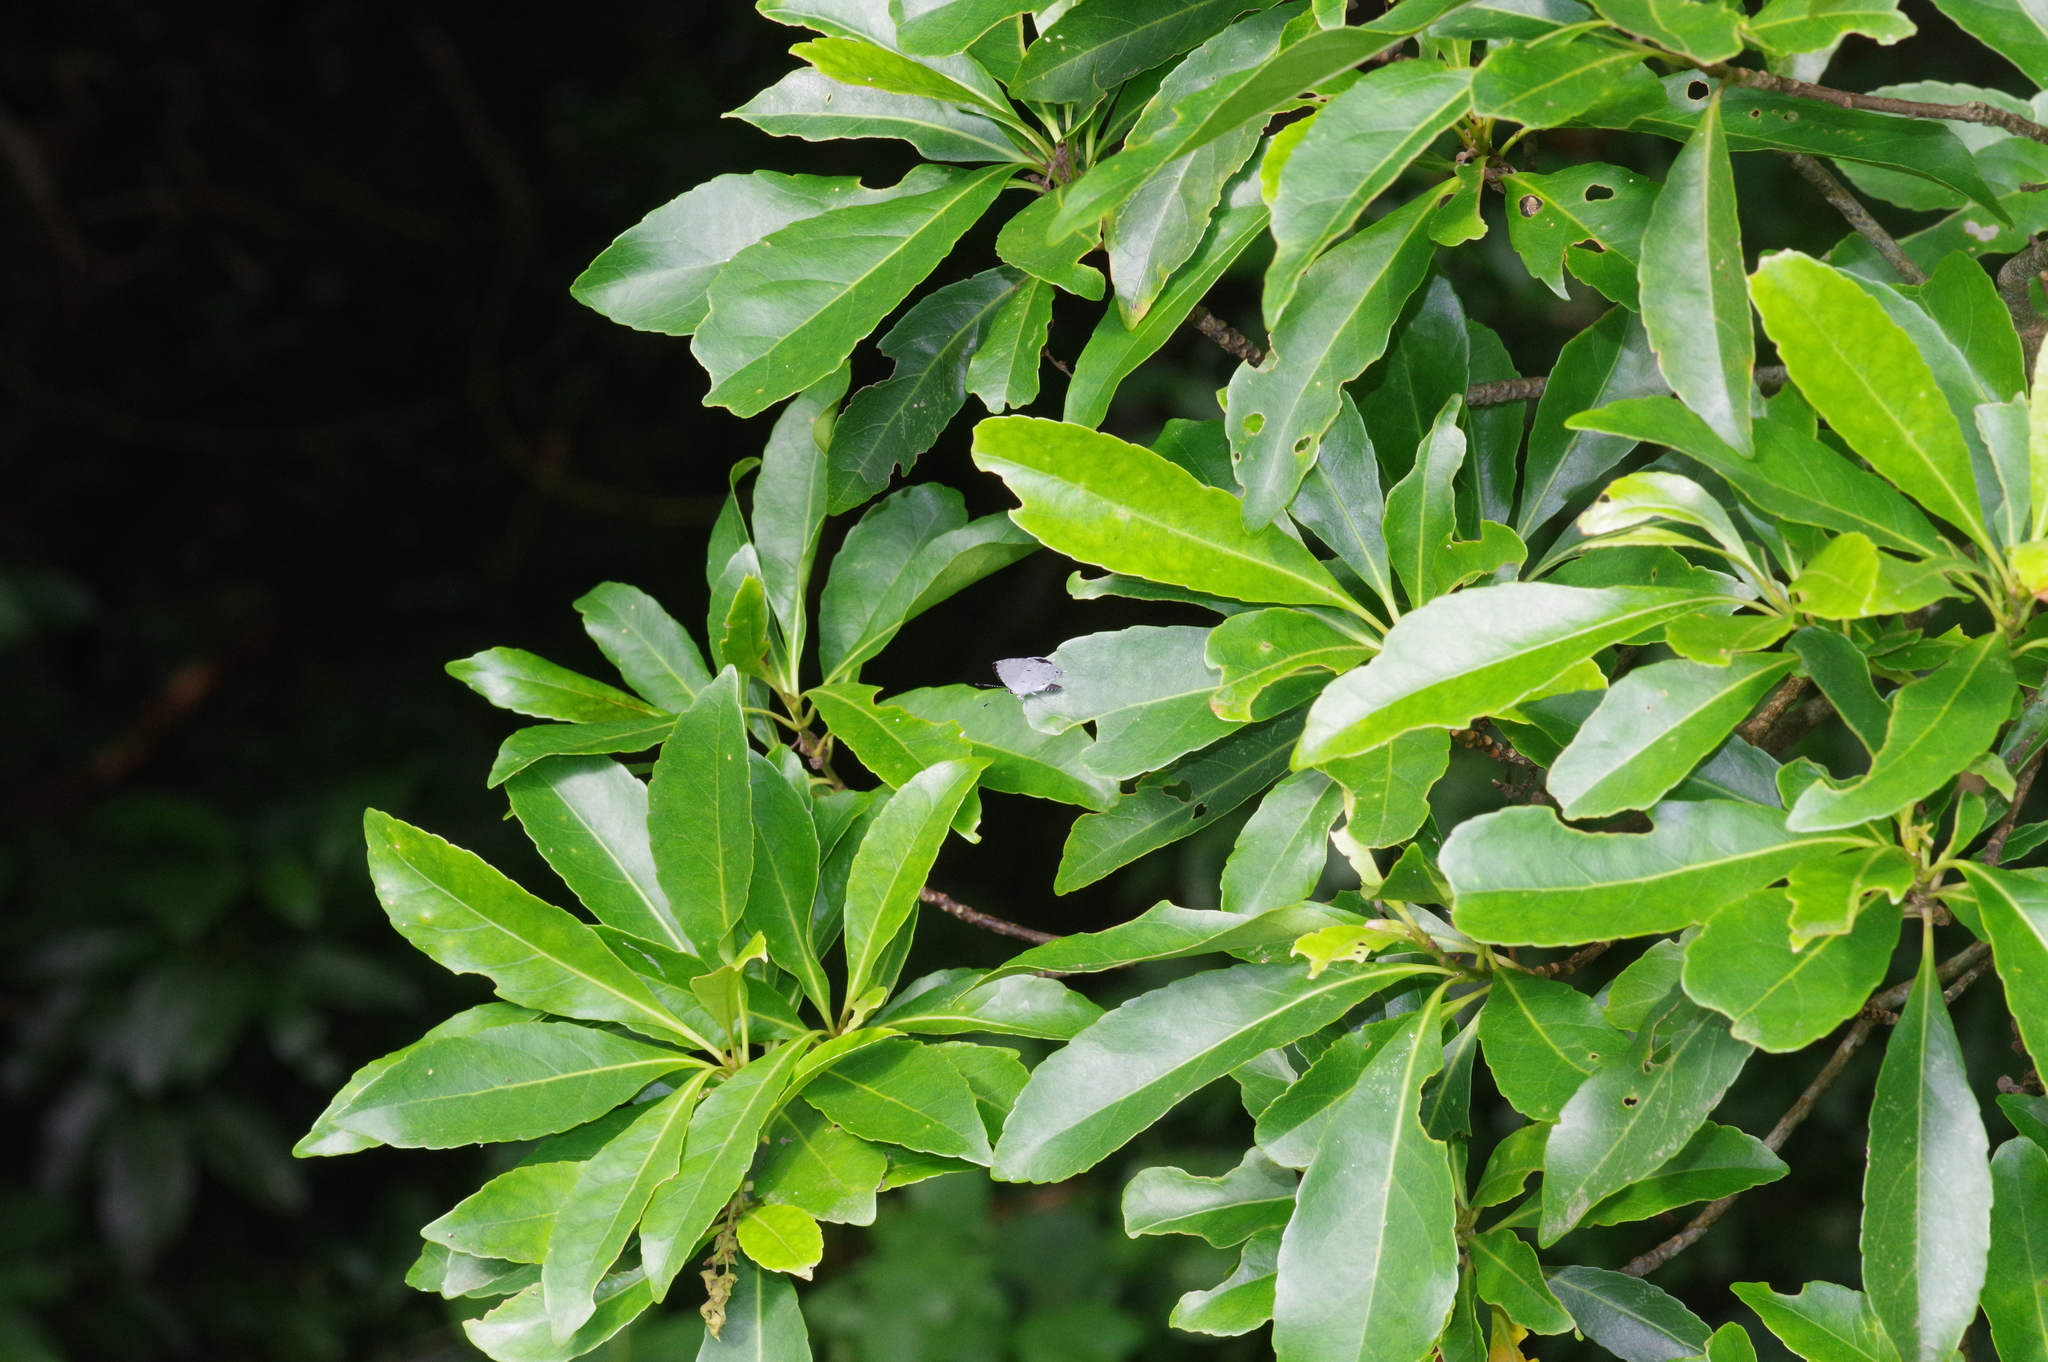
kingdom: Animalia
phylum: Arthropoda
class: Insecta
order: Lepidoptera
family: Lycaenidae
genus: Megisba
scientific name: Megisba malaya
